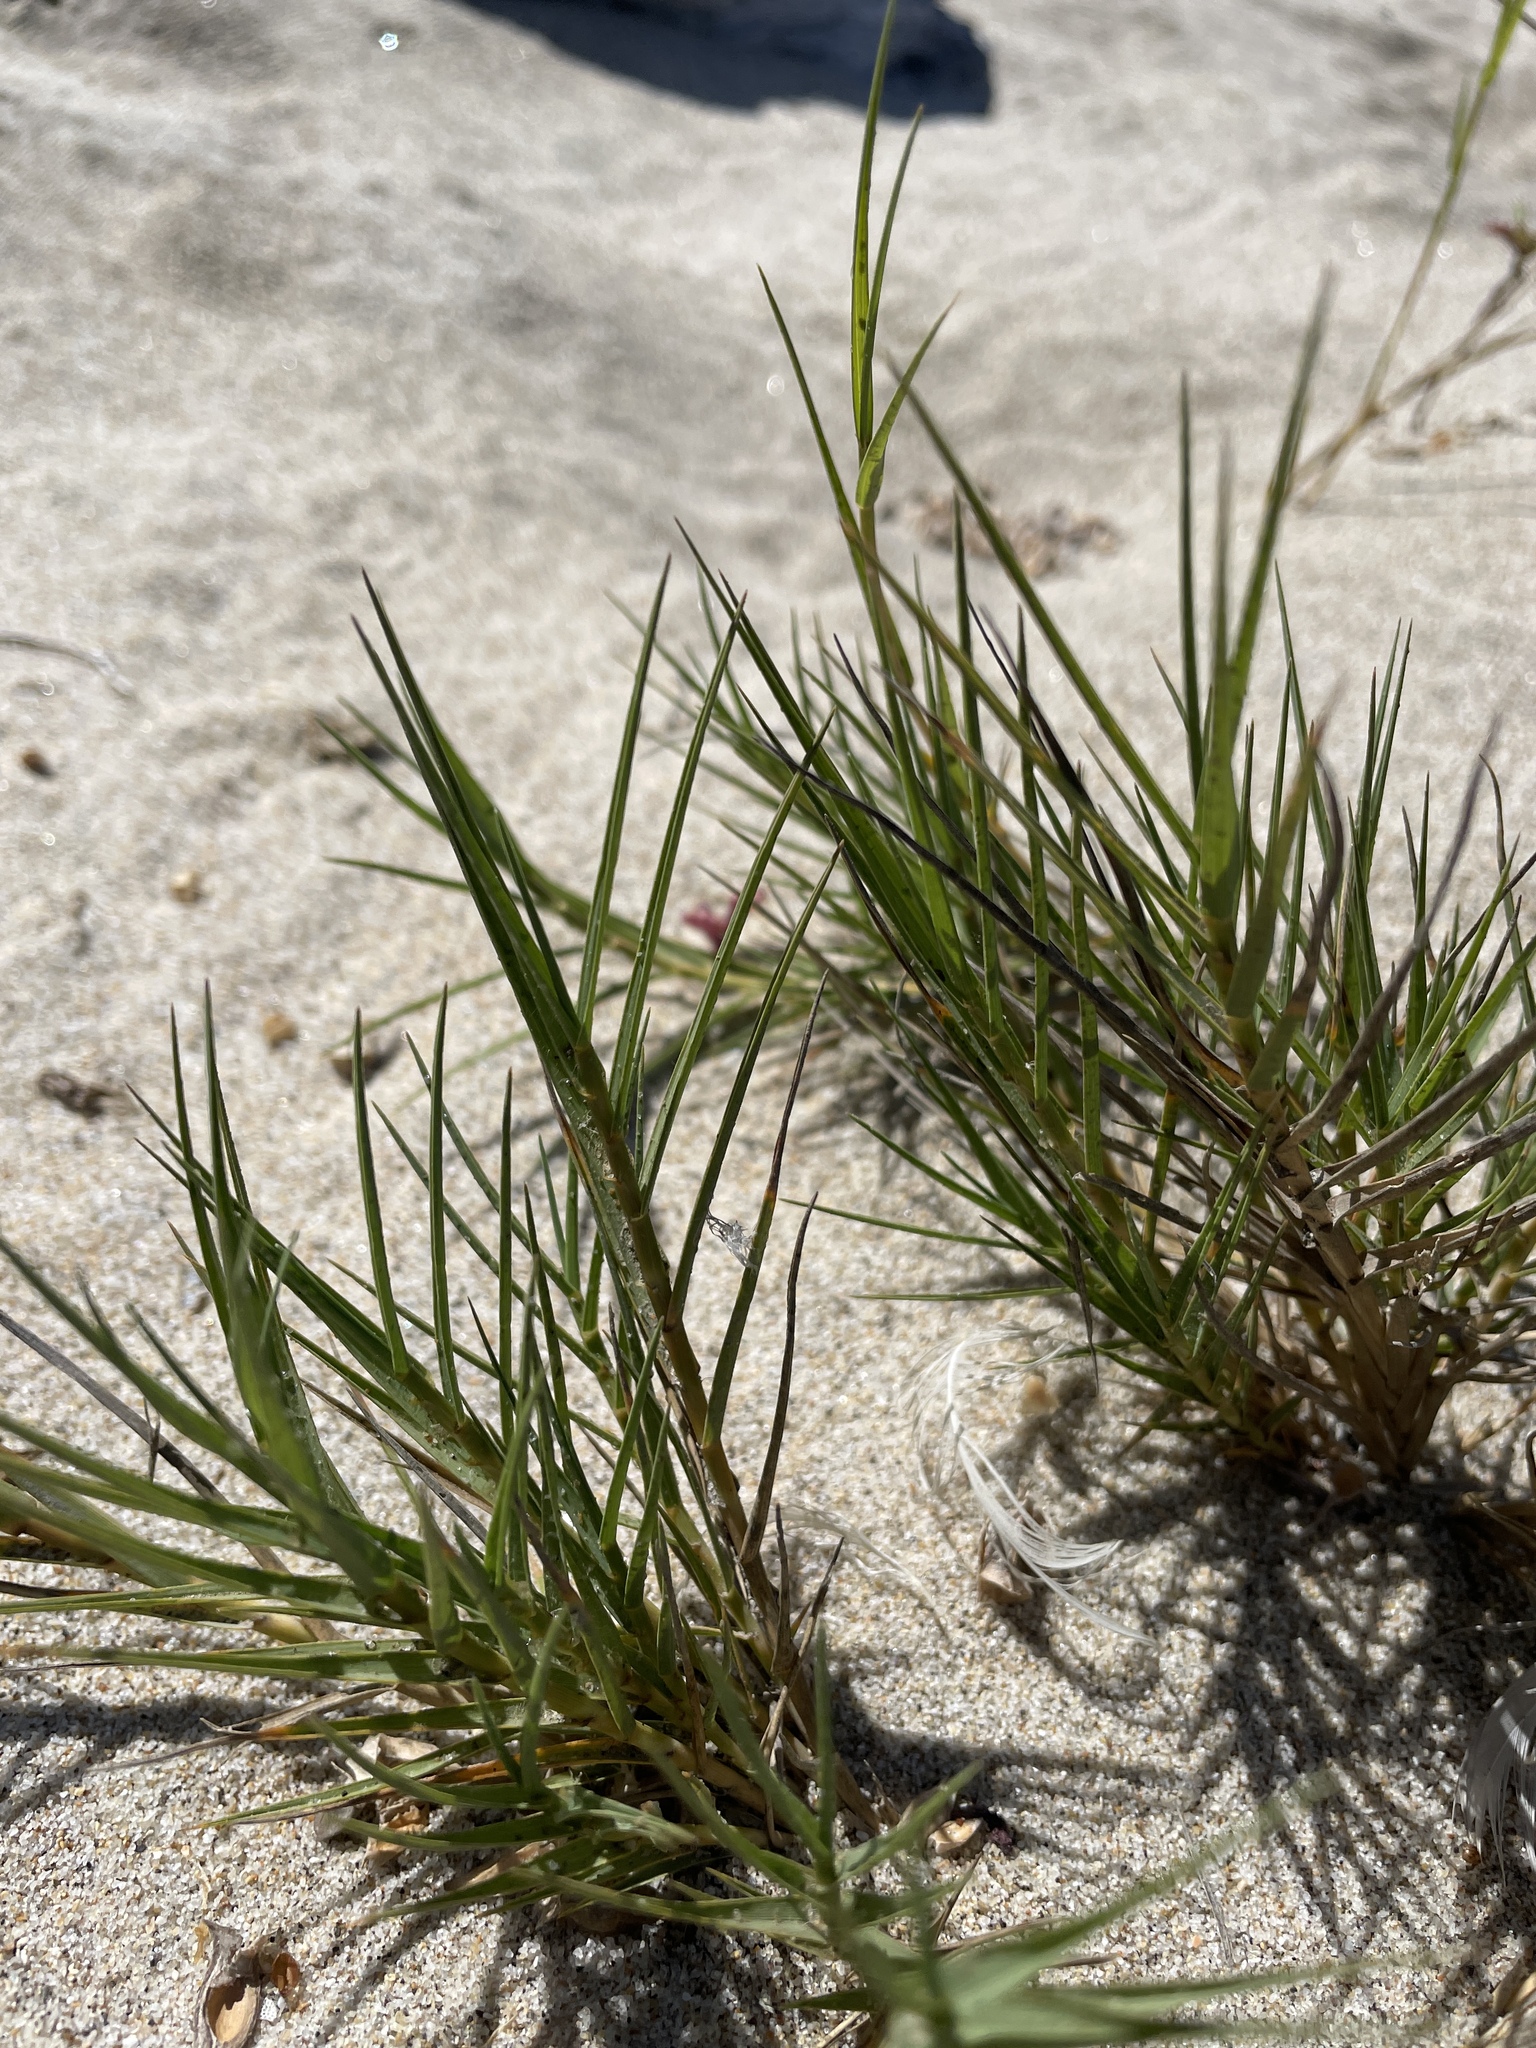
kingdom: Plantae
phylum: Tracheophyta
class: Liliopsida
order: Poales
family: Poaceae
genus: Distichlis
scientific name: Distichlis spicata
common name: Saltgrass
